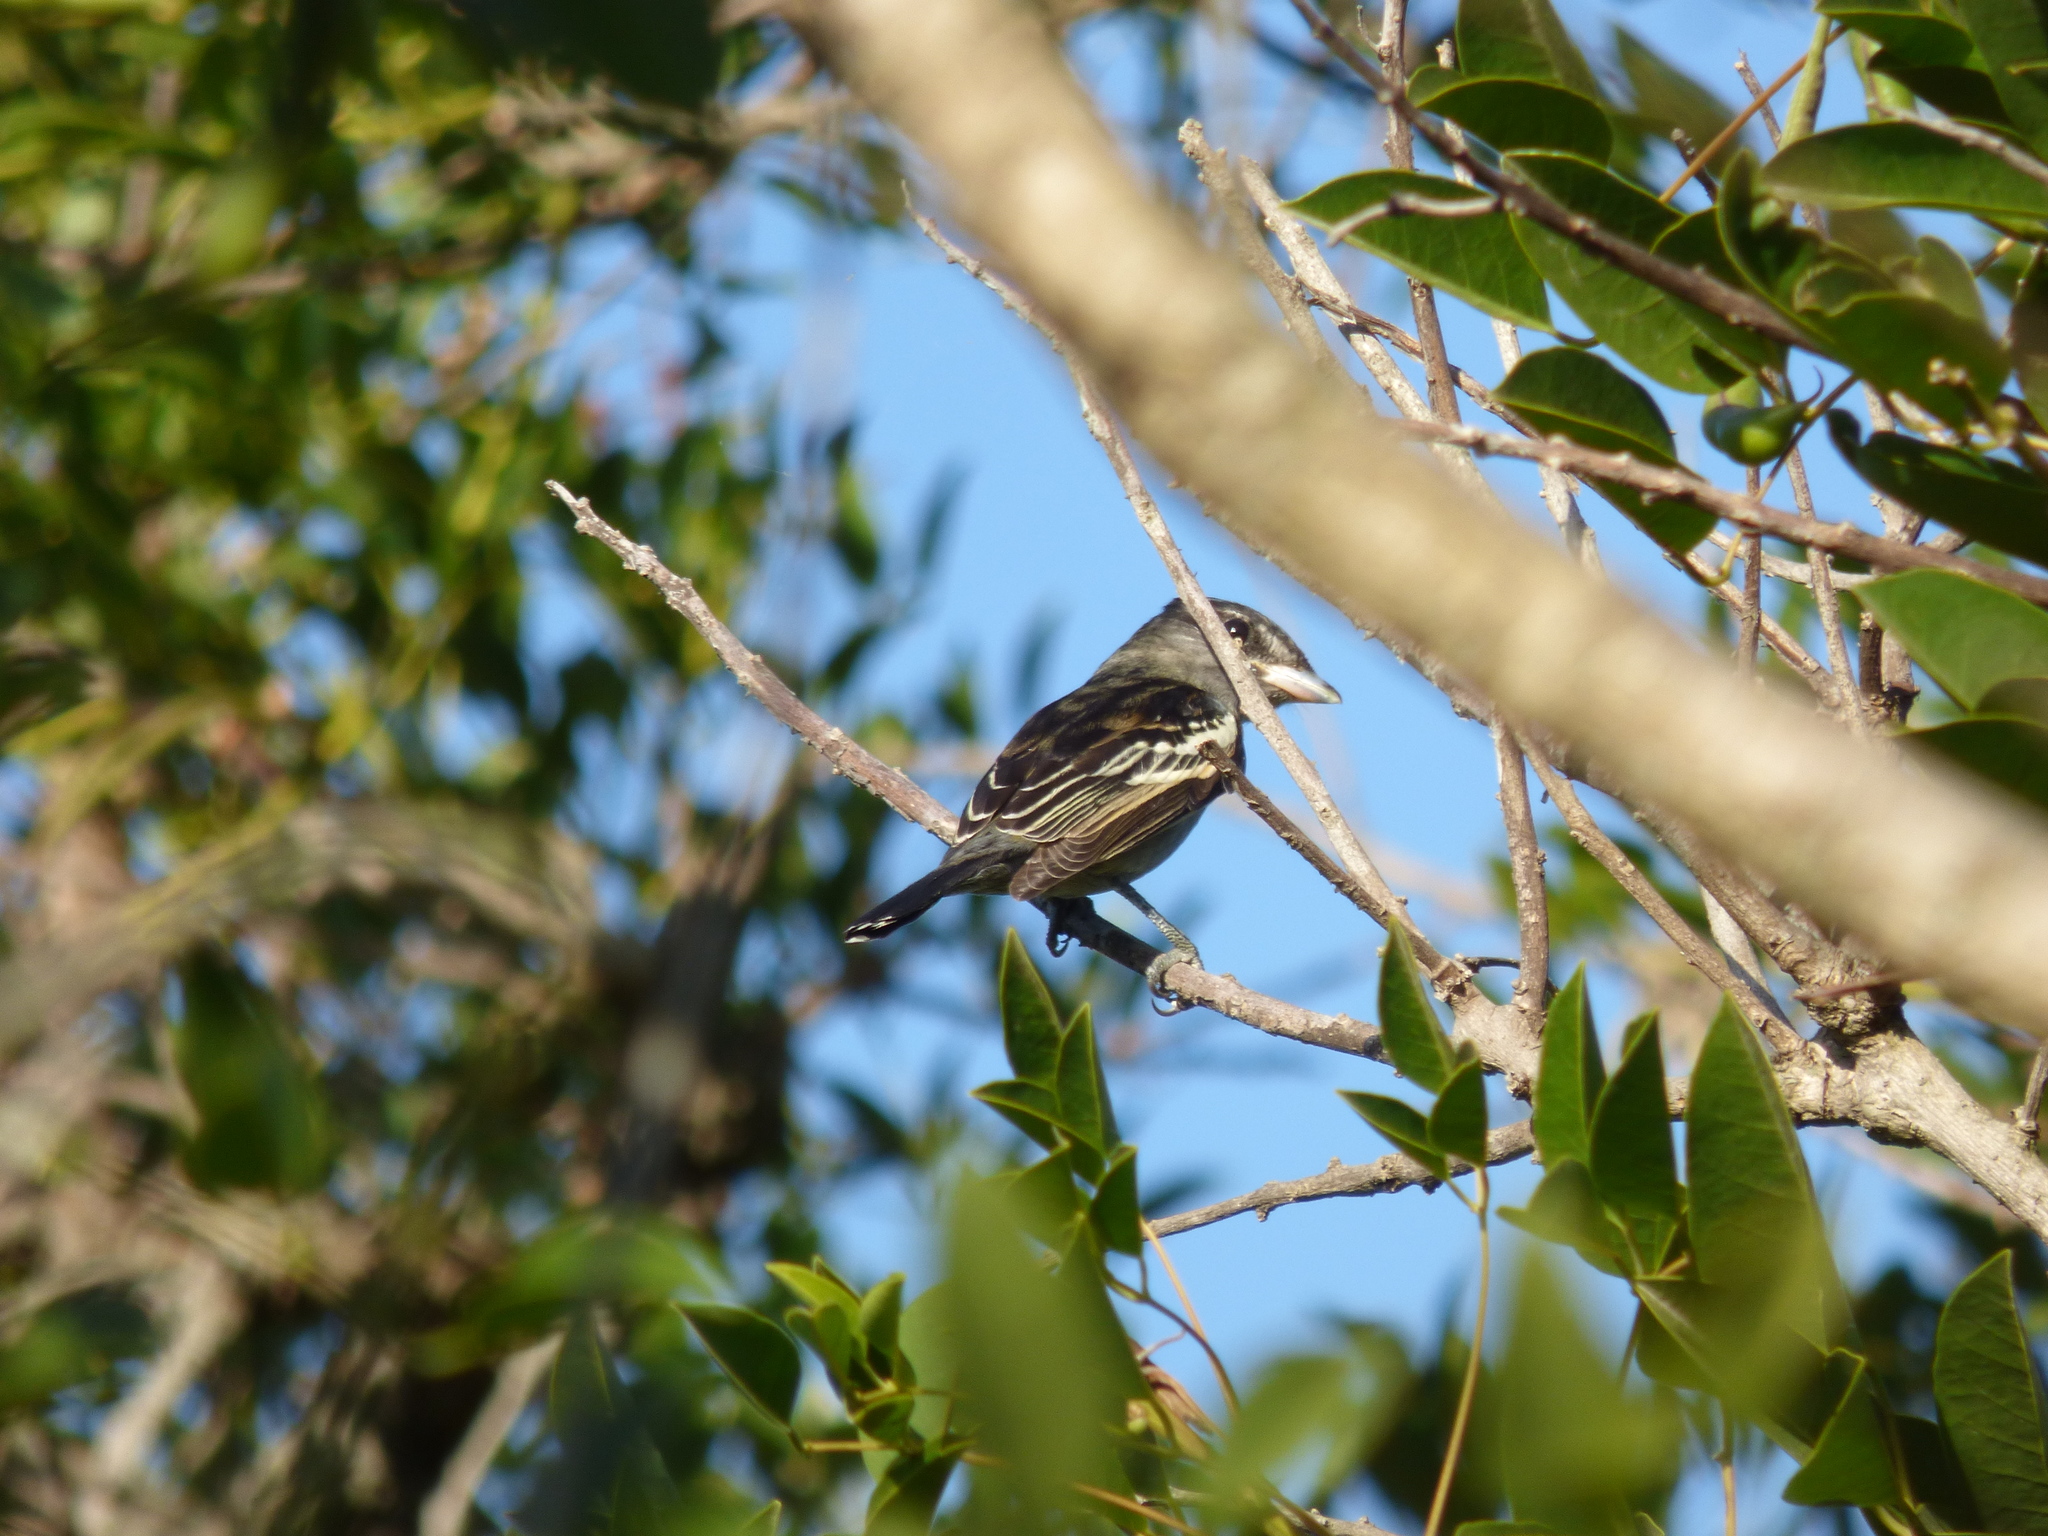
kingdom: Animalia
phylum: Chordata
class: Aves
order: Passeriformes
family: Cotingidae
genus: Pachyramphus
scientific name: Pachyramphus polychopterus
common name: White-winged becard
